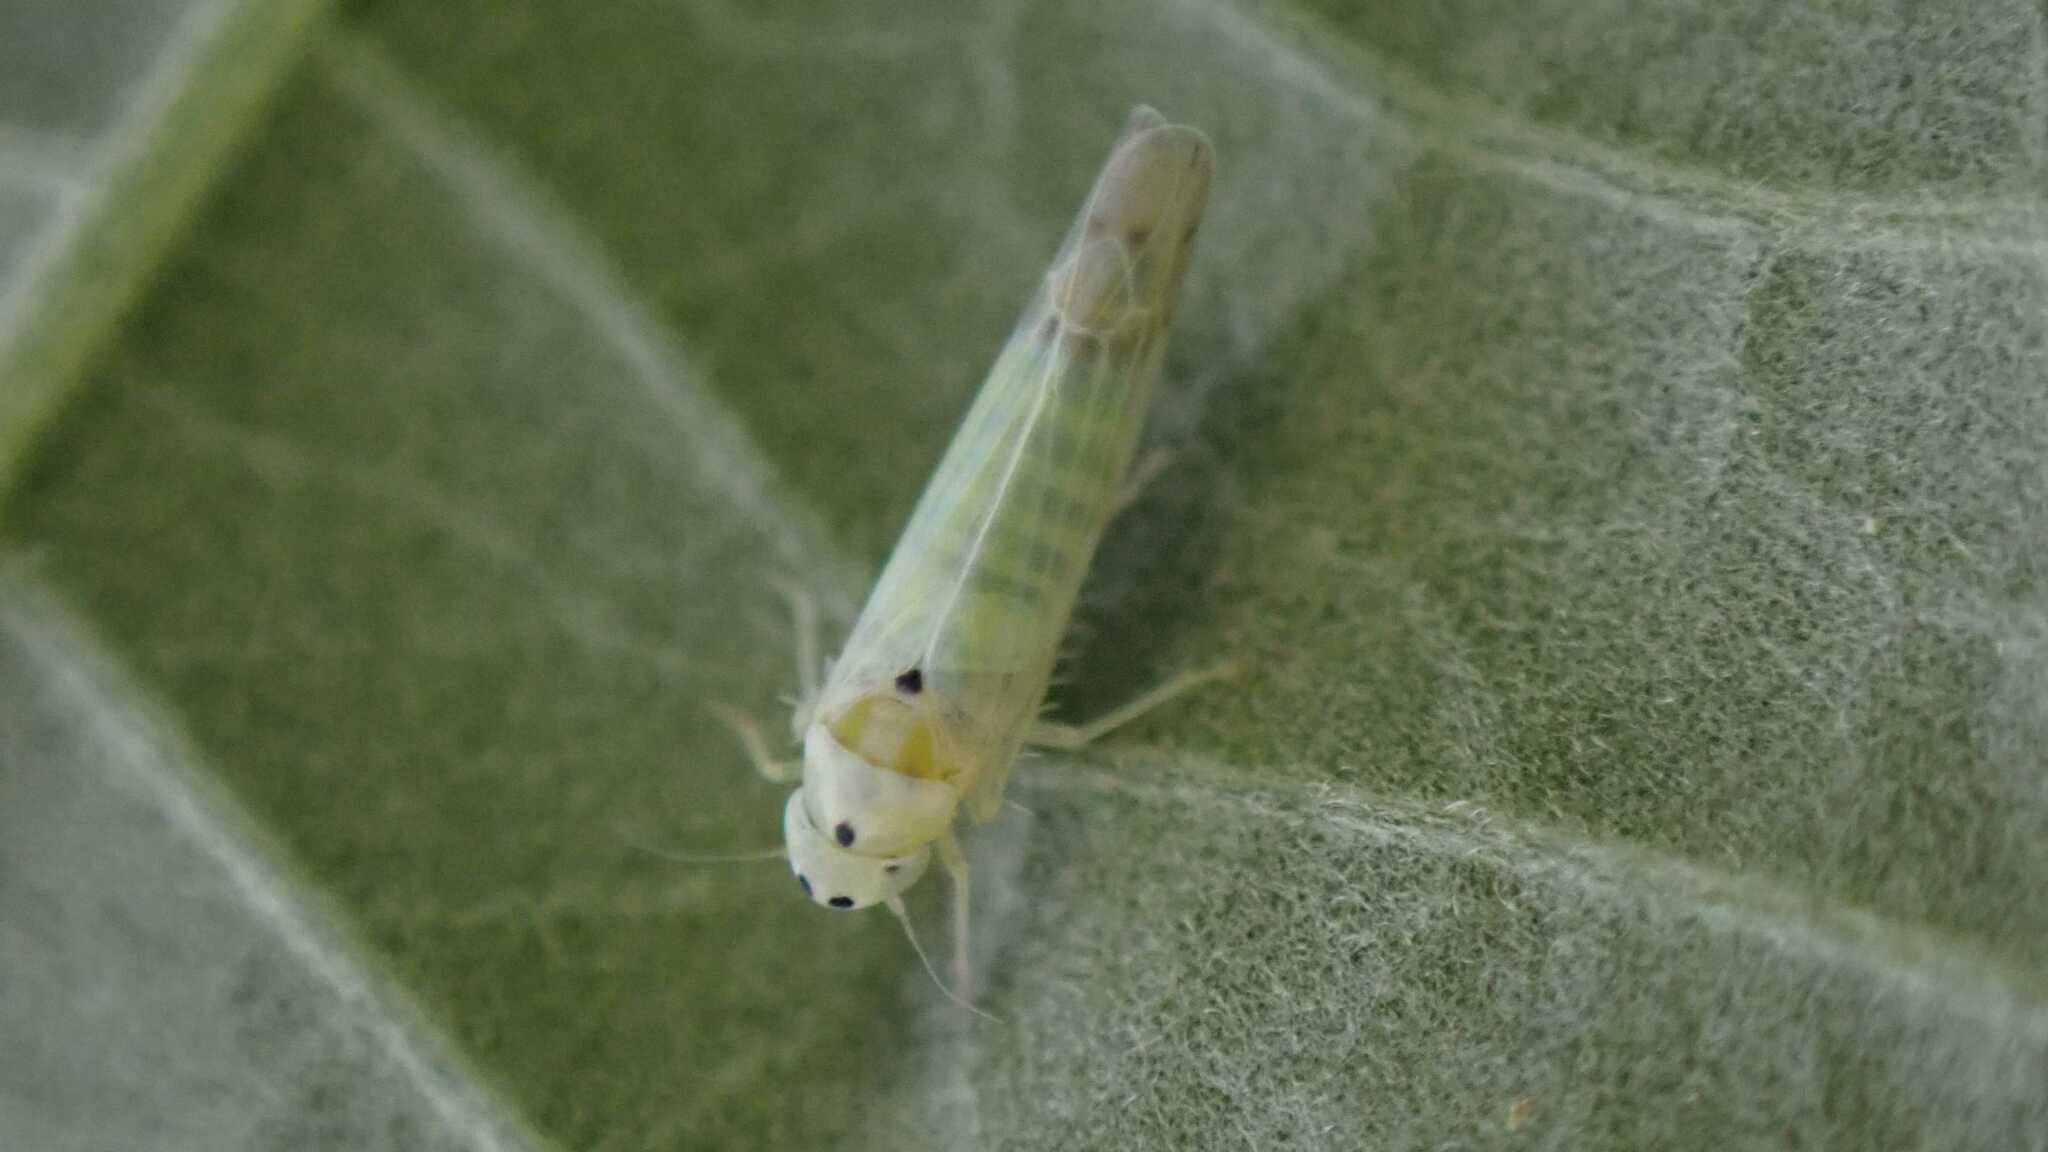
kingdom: Animalia
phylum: Arthropoda
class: Insecta
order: Hemiptera
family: Cicadellidae
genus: Ribautiana
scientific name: Ribautiana debilis
